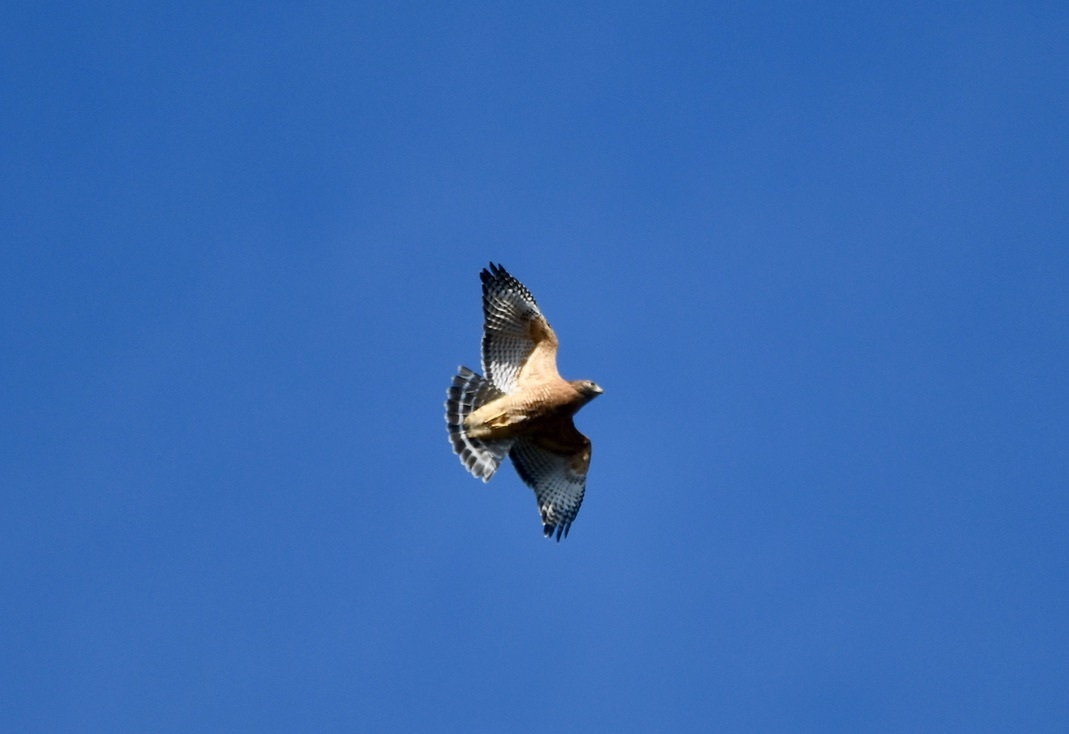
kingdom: Animalia
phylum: Chordata
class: Aves
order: Accipitriformes
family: Accipitridae
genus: Buteo
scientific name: Buteo lineatus
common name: Red-shouldered hawk
